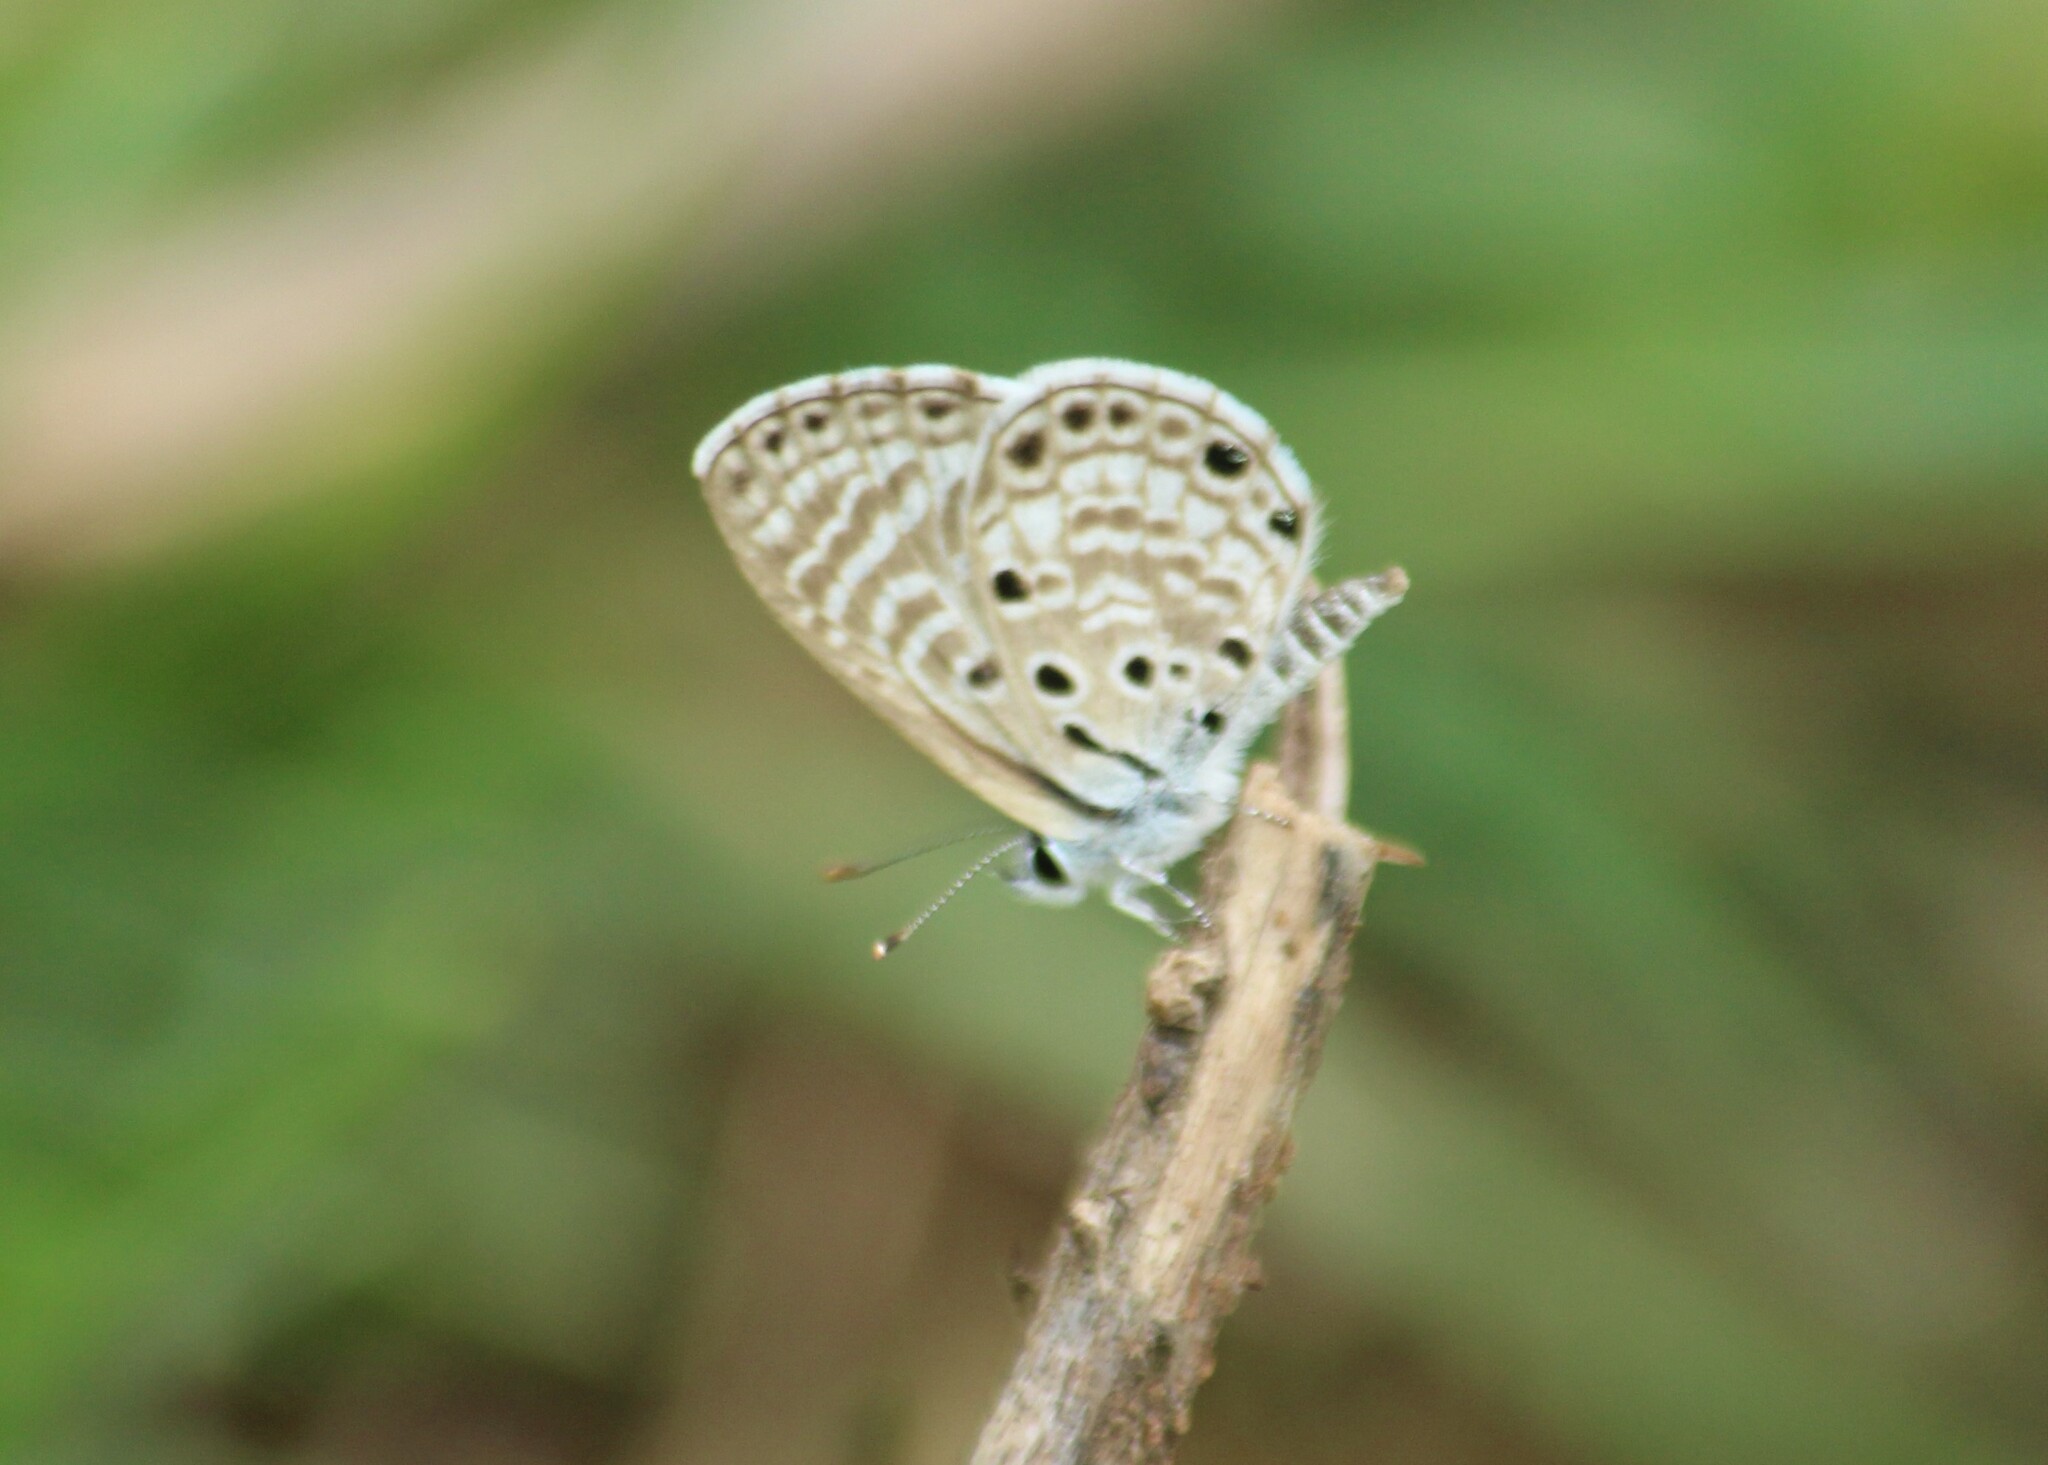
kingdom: Animalia
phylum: Arthropoda
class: Insecta
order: Lepidoptera
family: Lycaenidae
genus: Azanus
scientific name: Azanus jesous
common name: African babul blue
